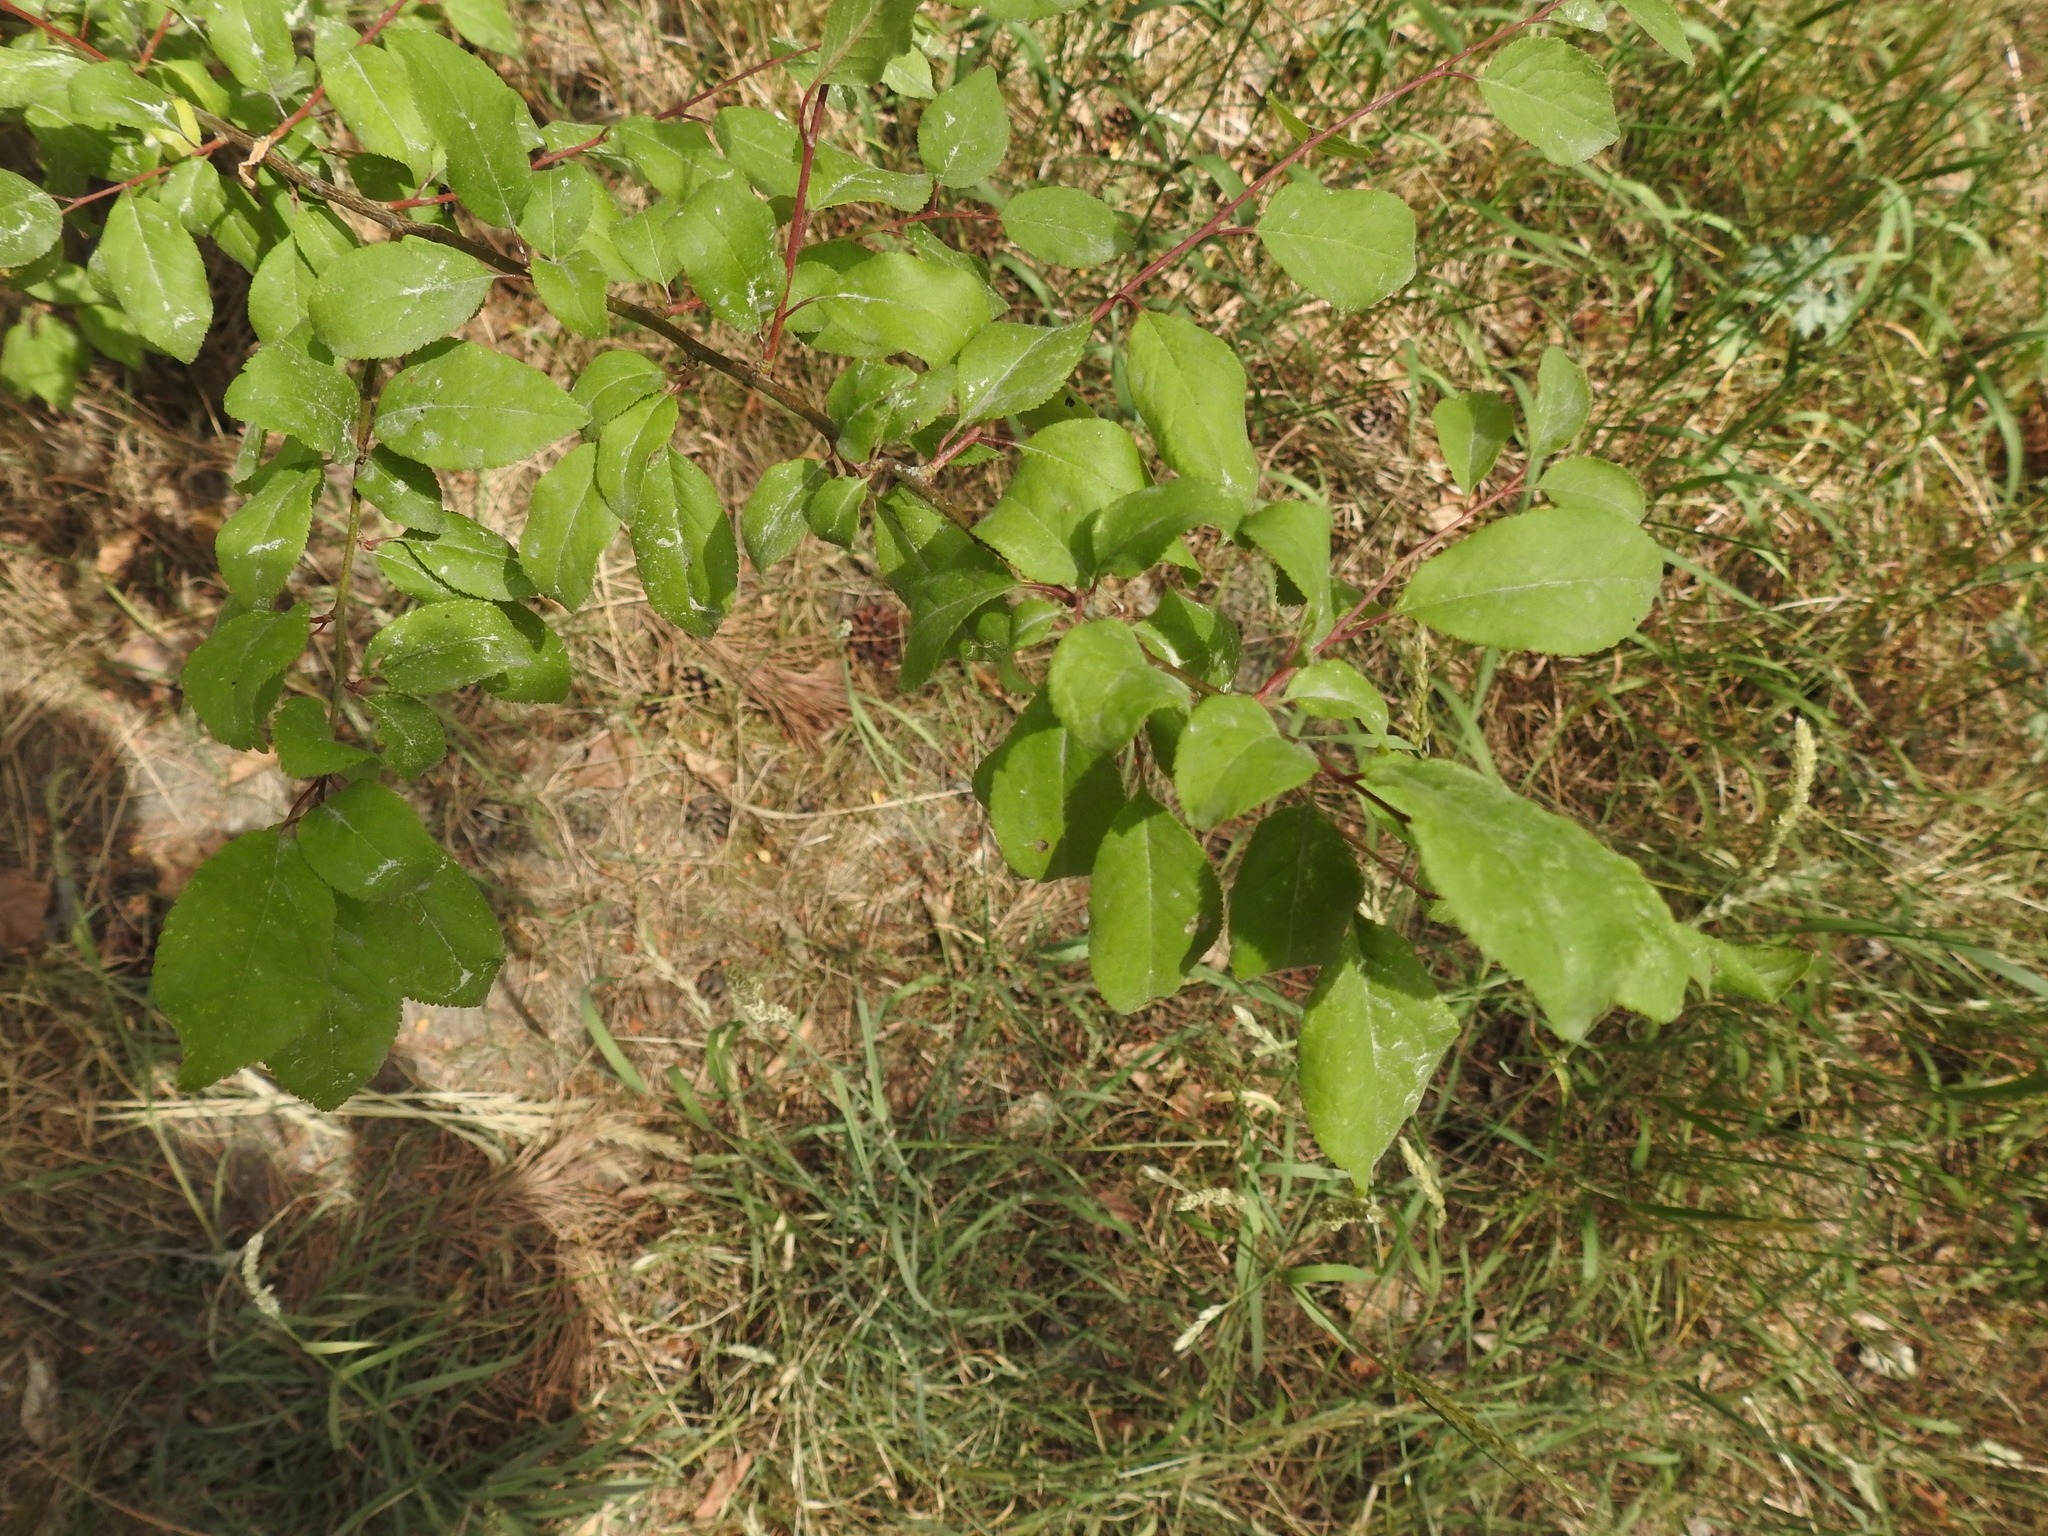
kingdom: Plantae
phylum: Tracheophyta
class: Magnoliopsida
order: Rosales
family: Rosaceae
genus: Prunus
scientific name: Prunus cerasifera
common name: Cherry plum
